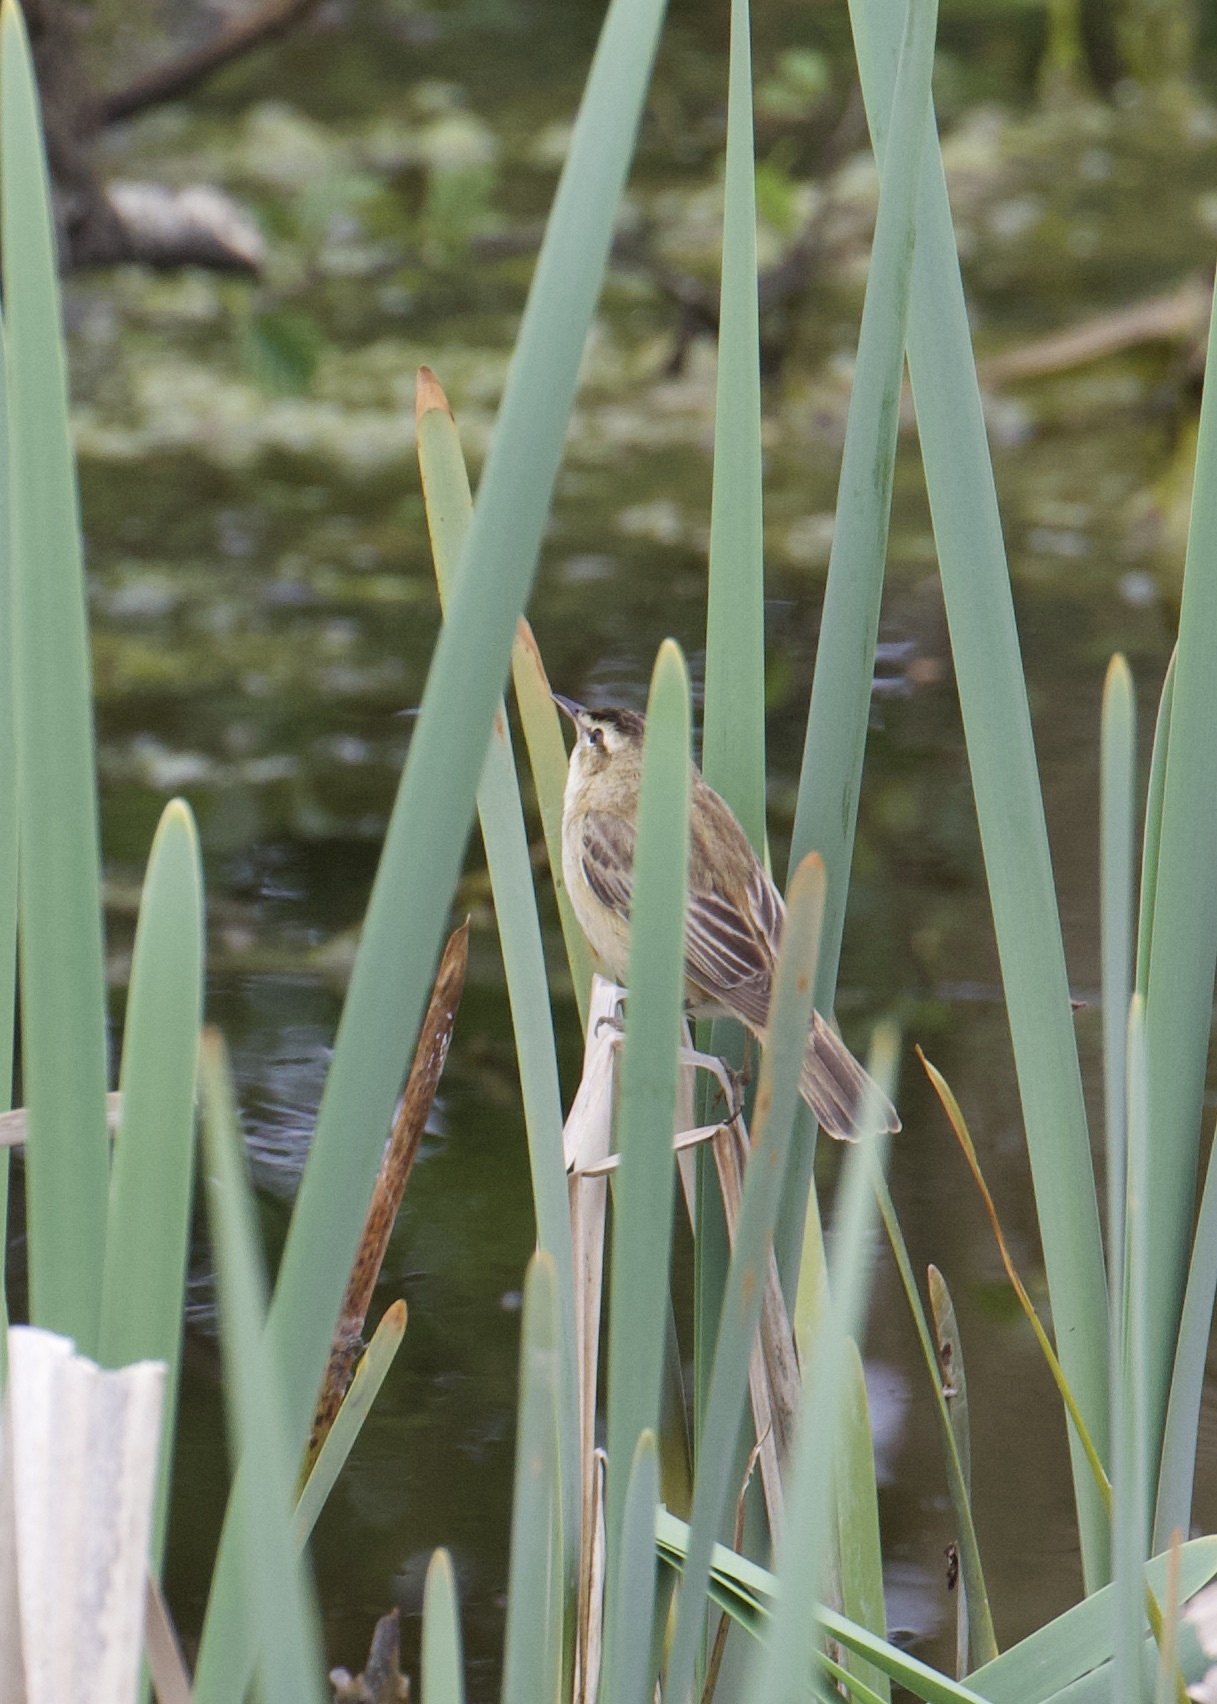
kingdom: Animalia
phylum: Chordata
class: Aves
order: Passeriformes
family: Acrocephalidae
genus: Acrocephalus
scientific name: Acrocephalus schoenobaenus
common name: Sedge warbler
